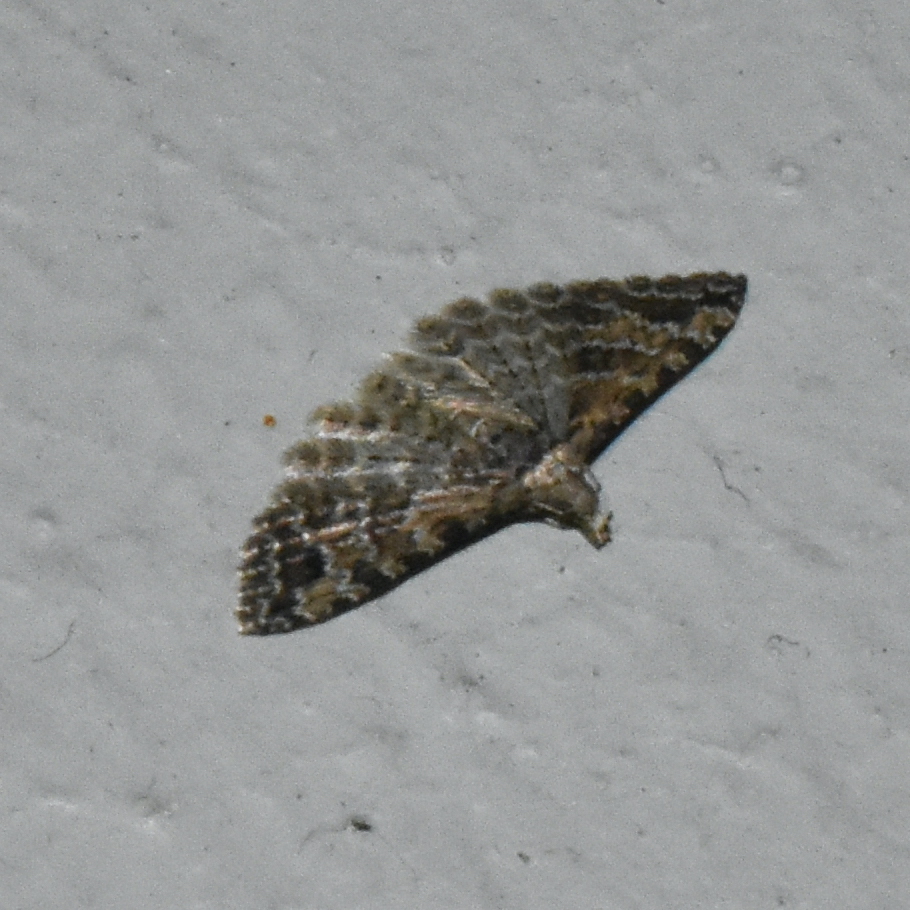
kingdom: Animalia
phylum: Arthropoda
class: Insecta
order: Lepidoptera
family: Alucitidae
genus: Alucita
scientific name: Alucita montana
